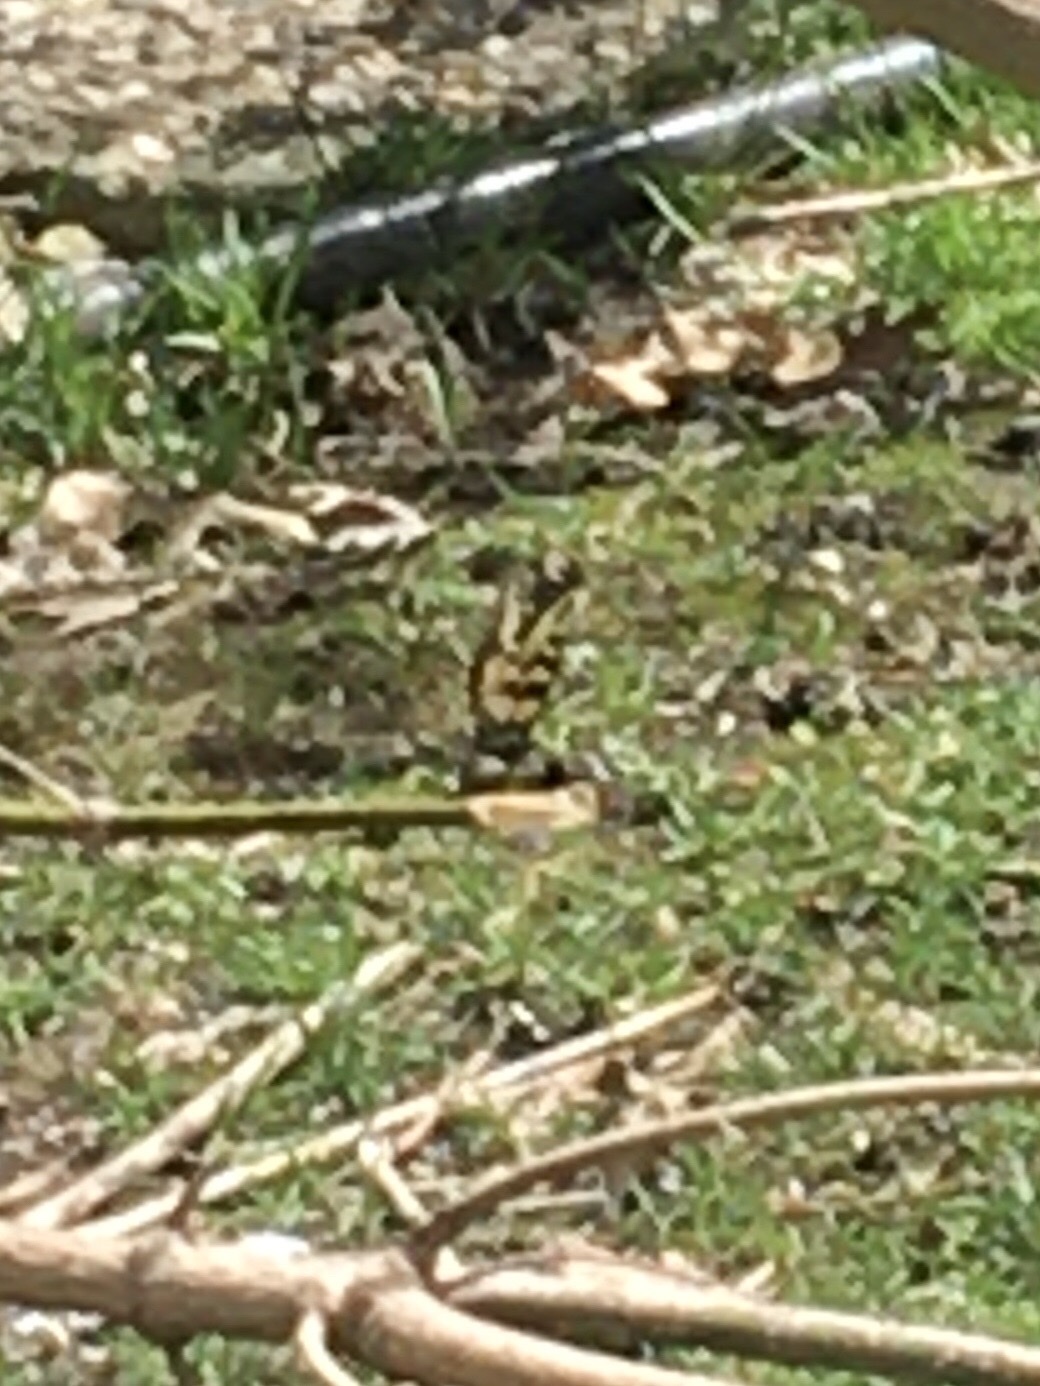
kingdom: Animalia
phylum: Arthropoda
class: Insecta
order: Lepidoptera
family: Papilionidae
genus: Papilio
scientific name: Papilio glaucus
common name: Tiger swallowtail
